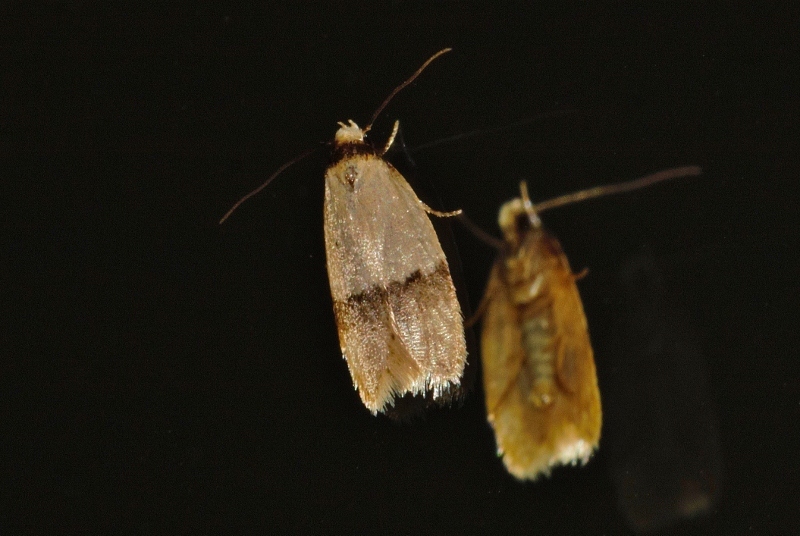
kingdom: Animalia
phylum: Arthropoda
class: Insecta
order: Lepidoptera
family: Peleopodidae
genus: Odites
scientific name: Odites natalensis
